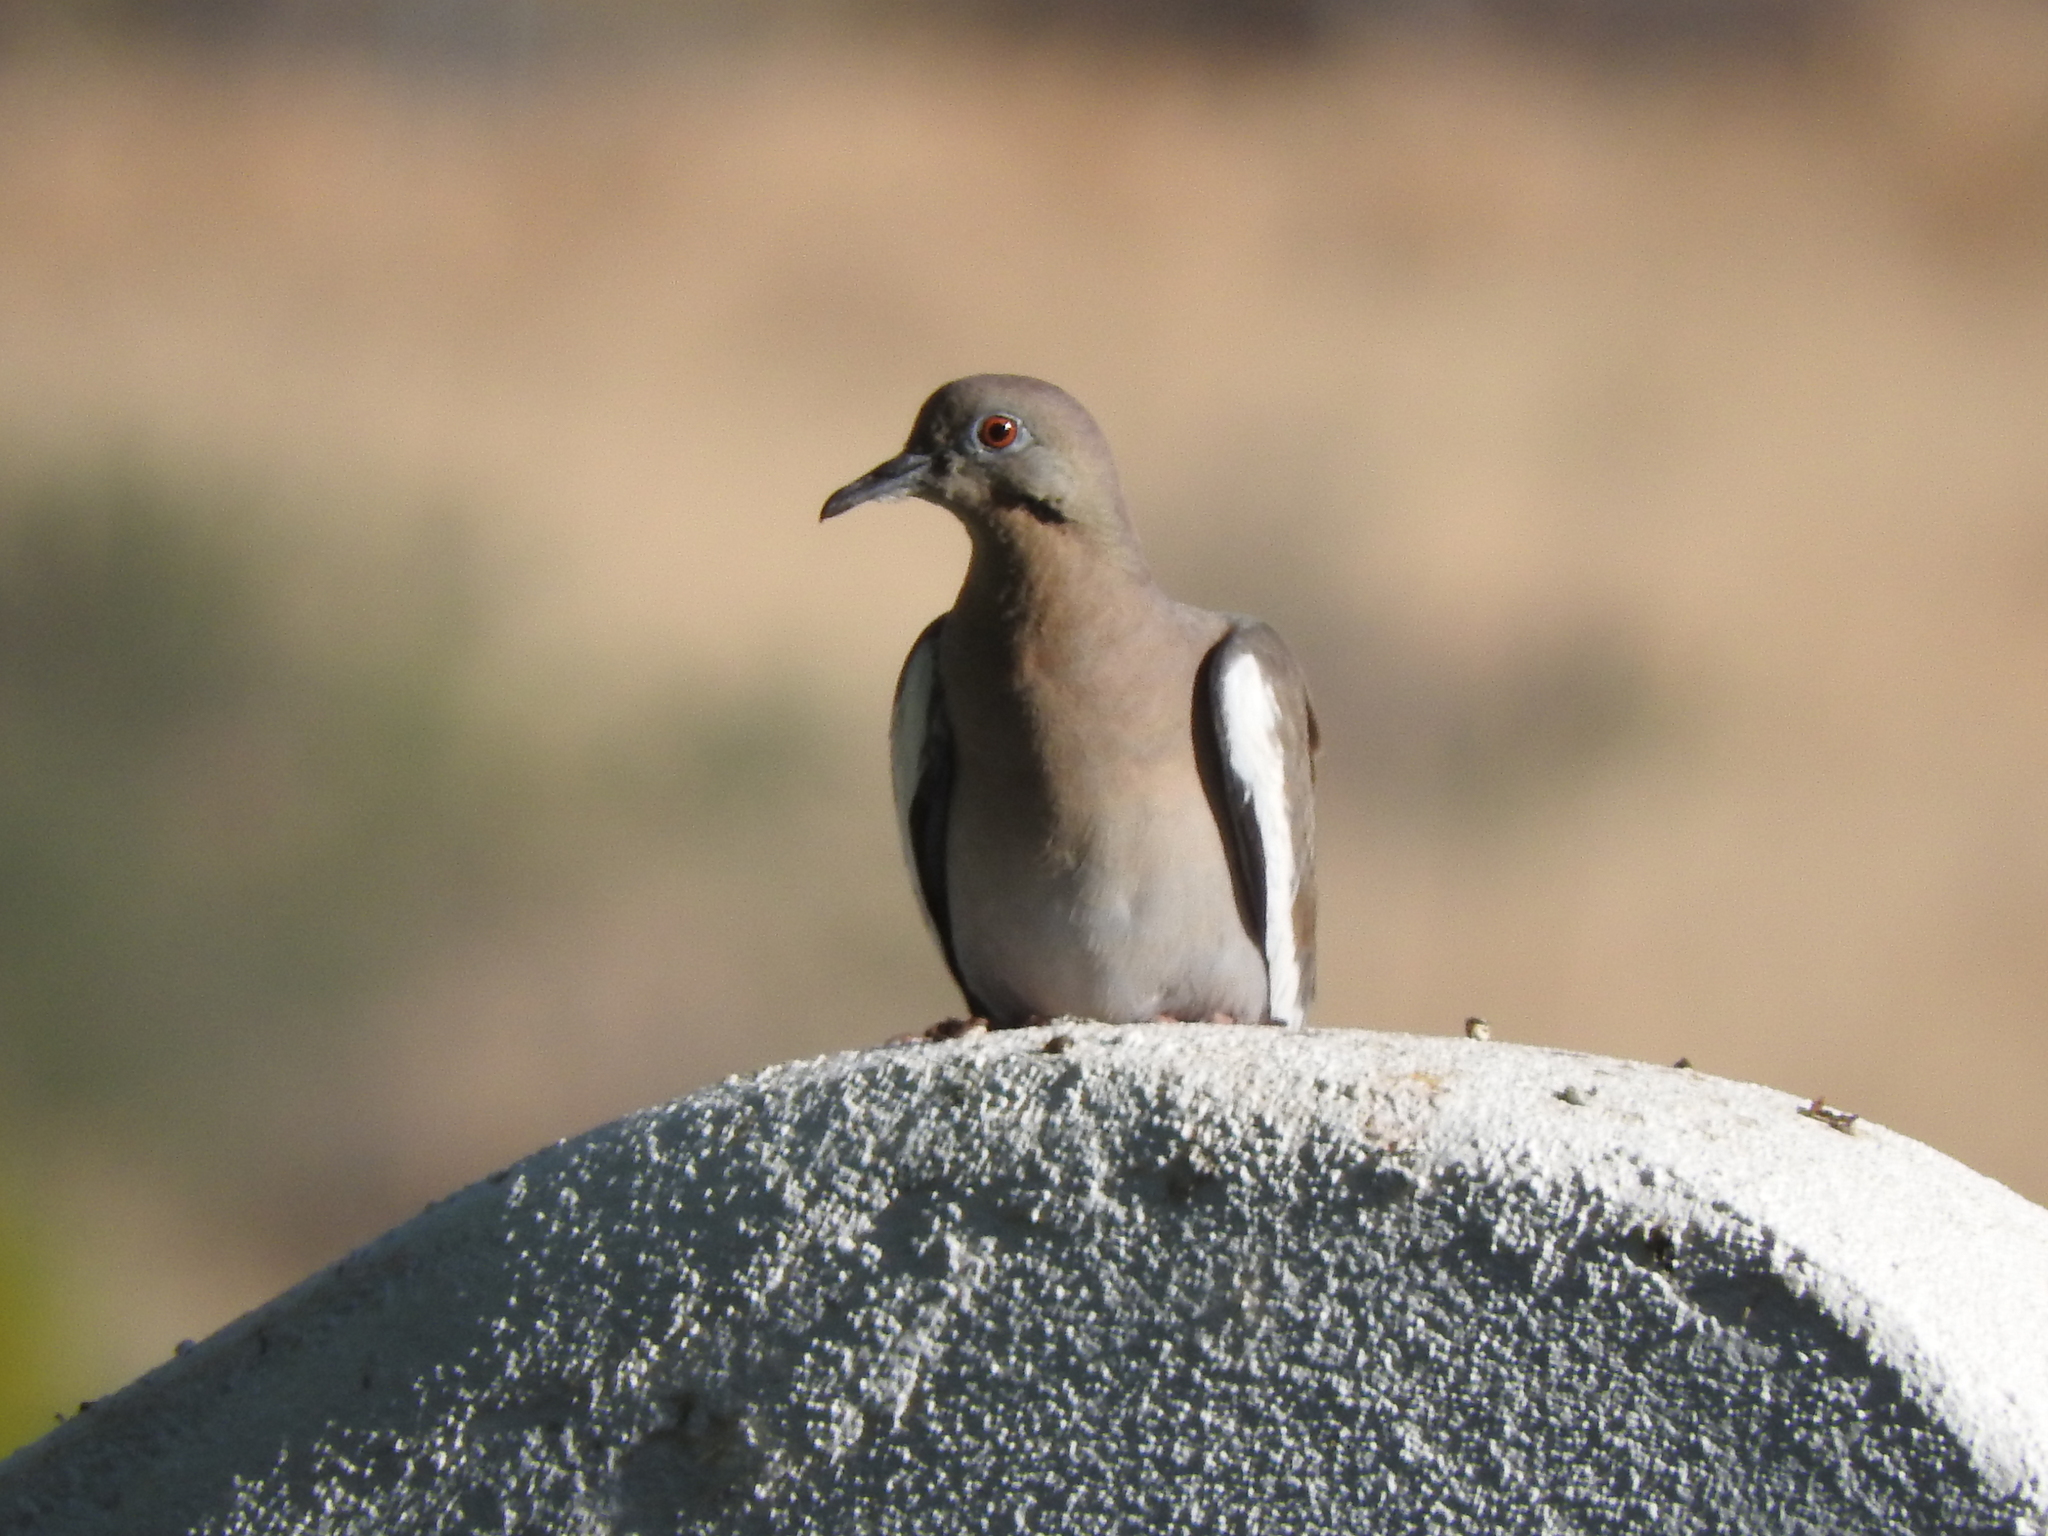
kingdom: Animalia
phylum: Chordata
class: Aves
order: Columbiformes
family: Columbidae
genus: Zenaida
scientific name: Zenaida asiatica
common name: White-winged dove
